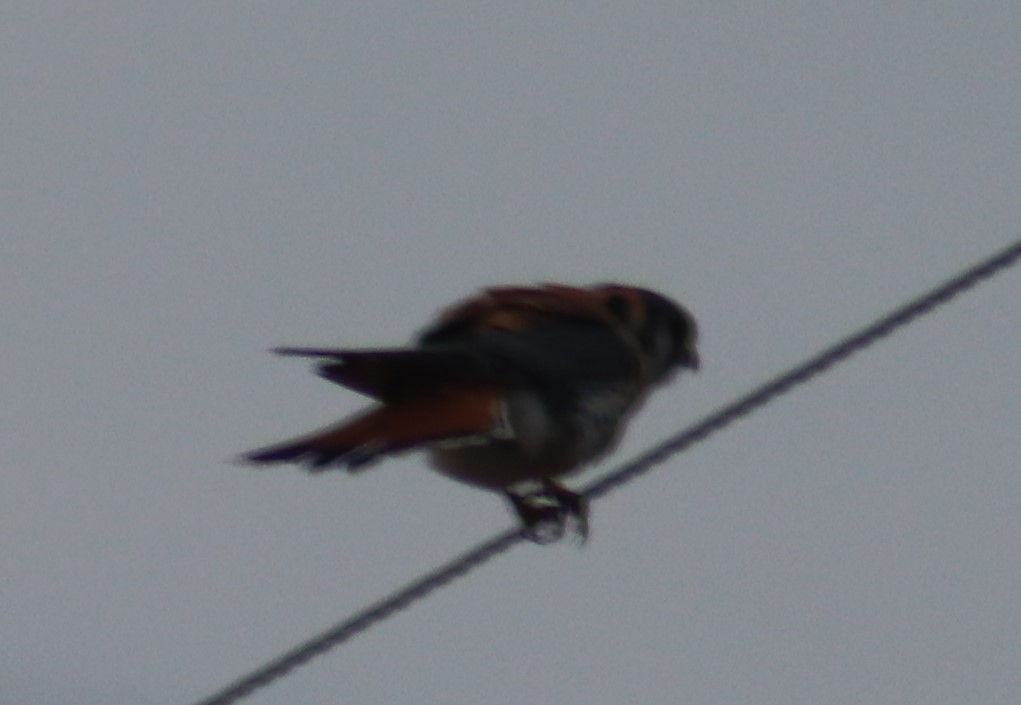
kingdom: Animalia
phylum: Chordata
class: Aves
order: Falconiformes
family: Falconidae
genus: Falco
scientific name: Falco sparverius
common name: American kestrel
